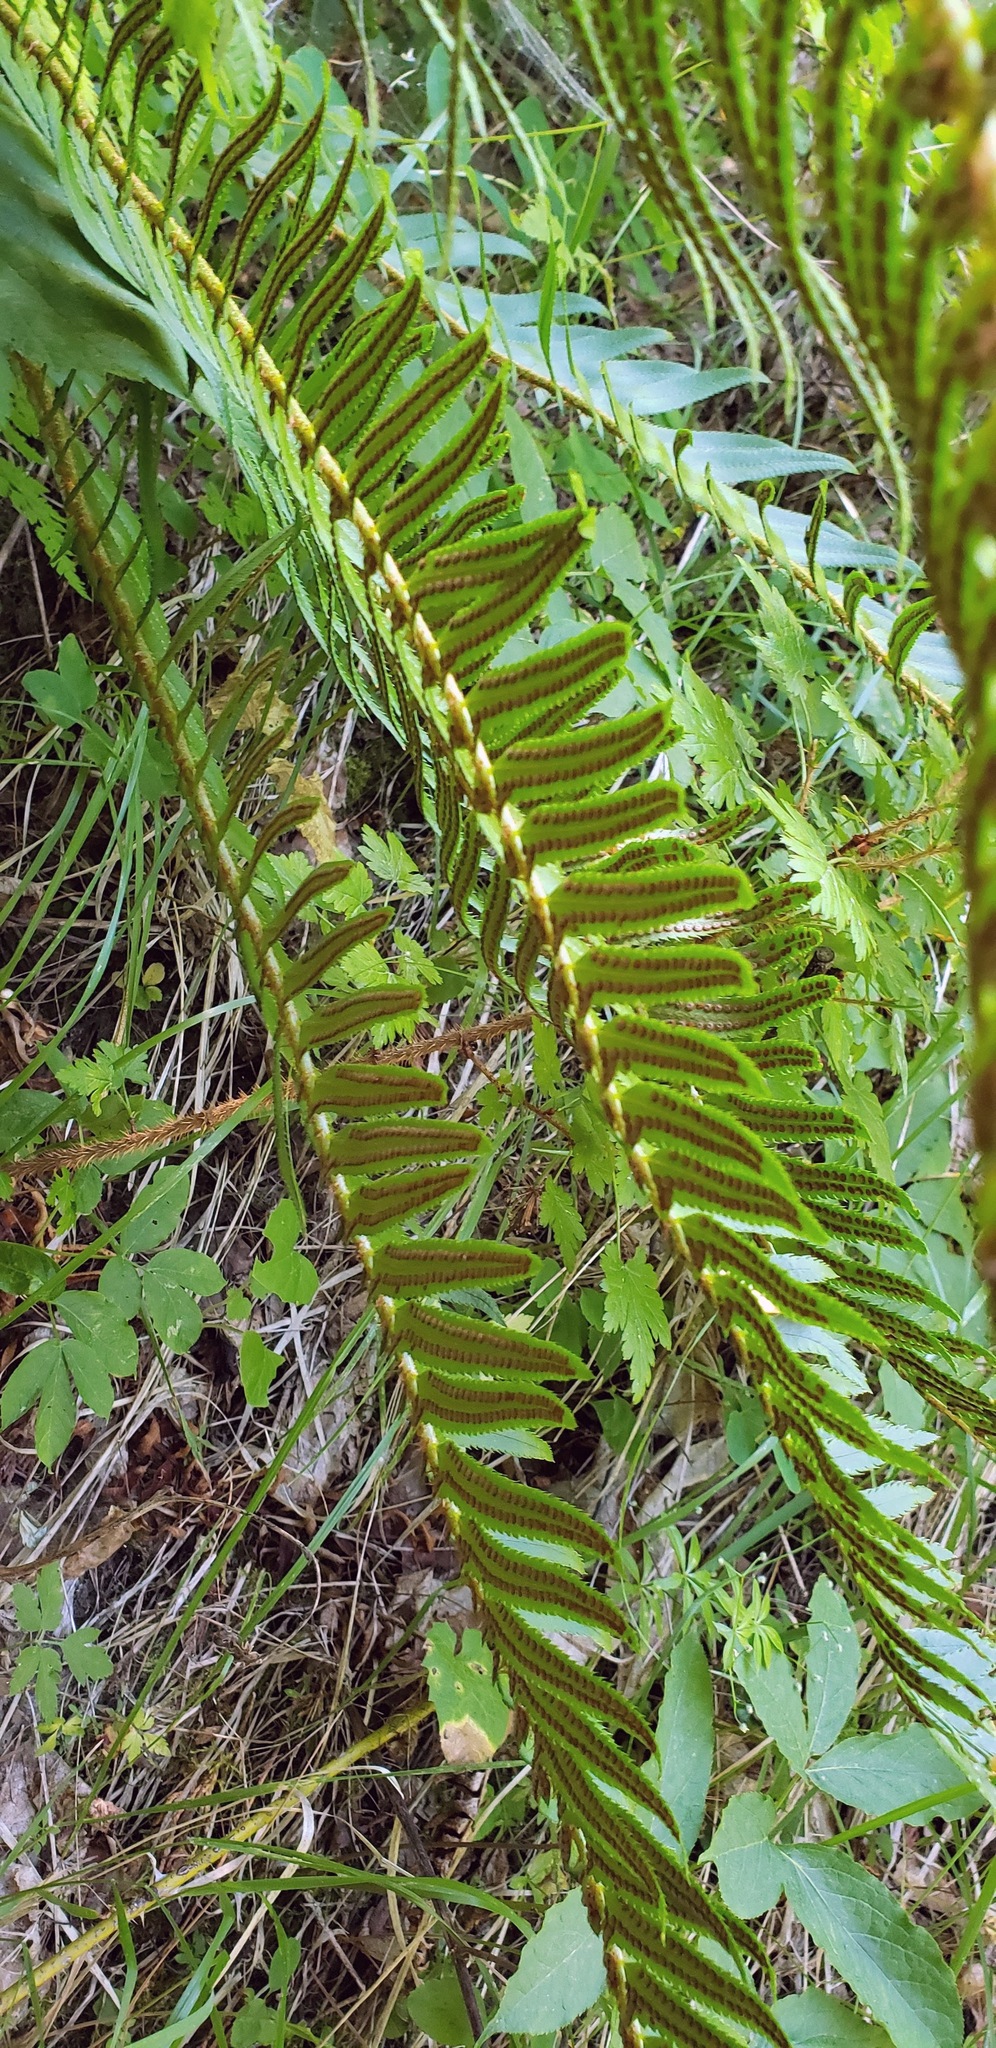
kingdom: Plantae
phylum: Tracheophyta
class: Polypodiopsida
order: Polypodiales
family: Dryopteridaceae
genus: Polystichum
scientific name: Polystichum munitum
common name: Western sword-fern
